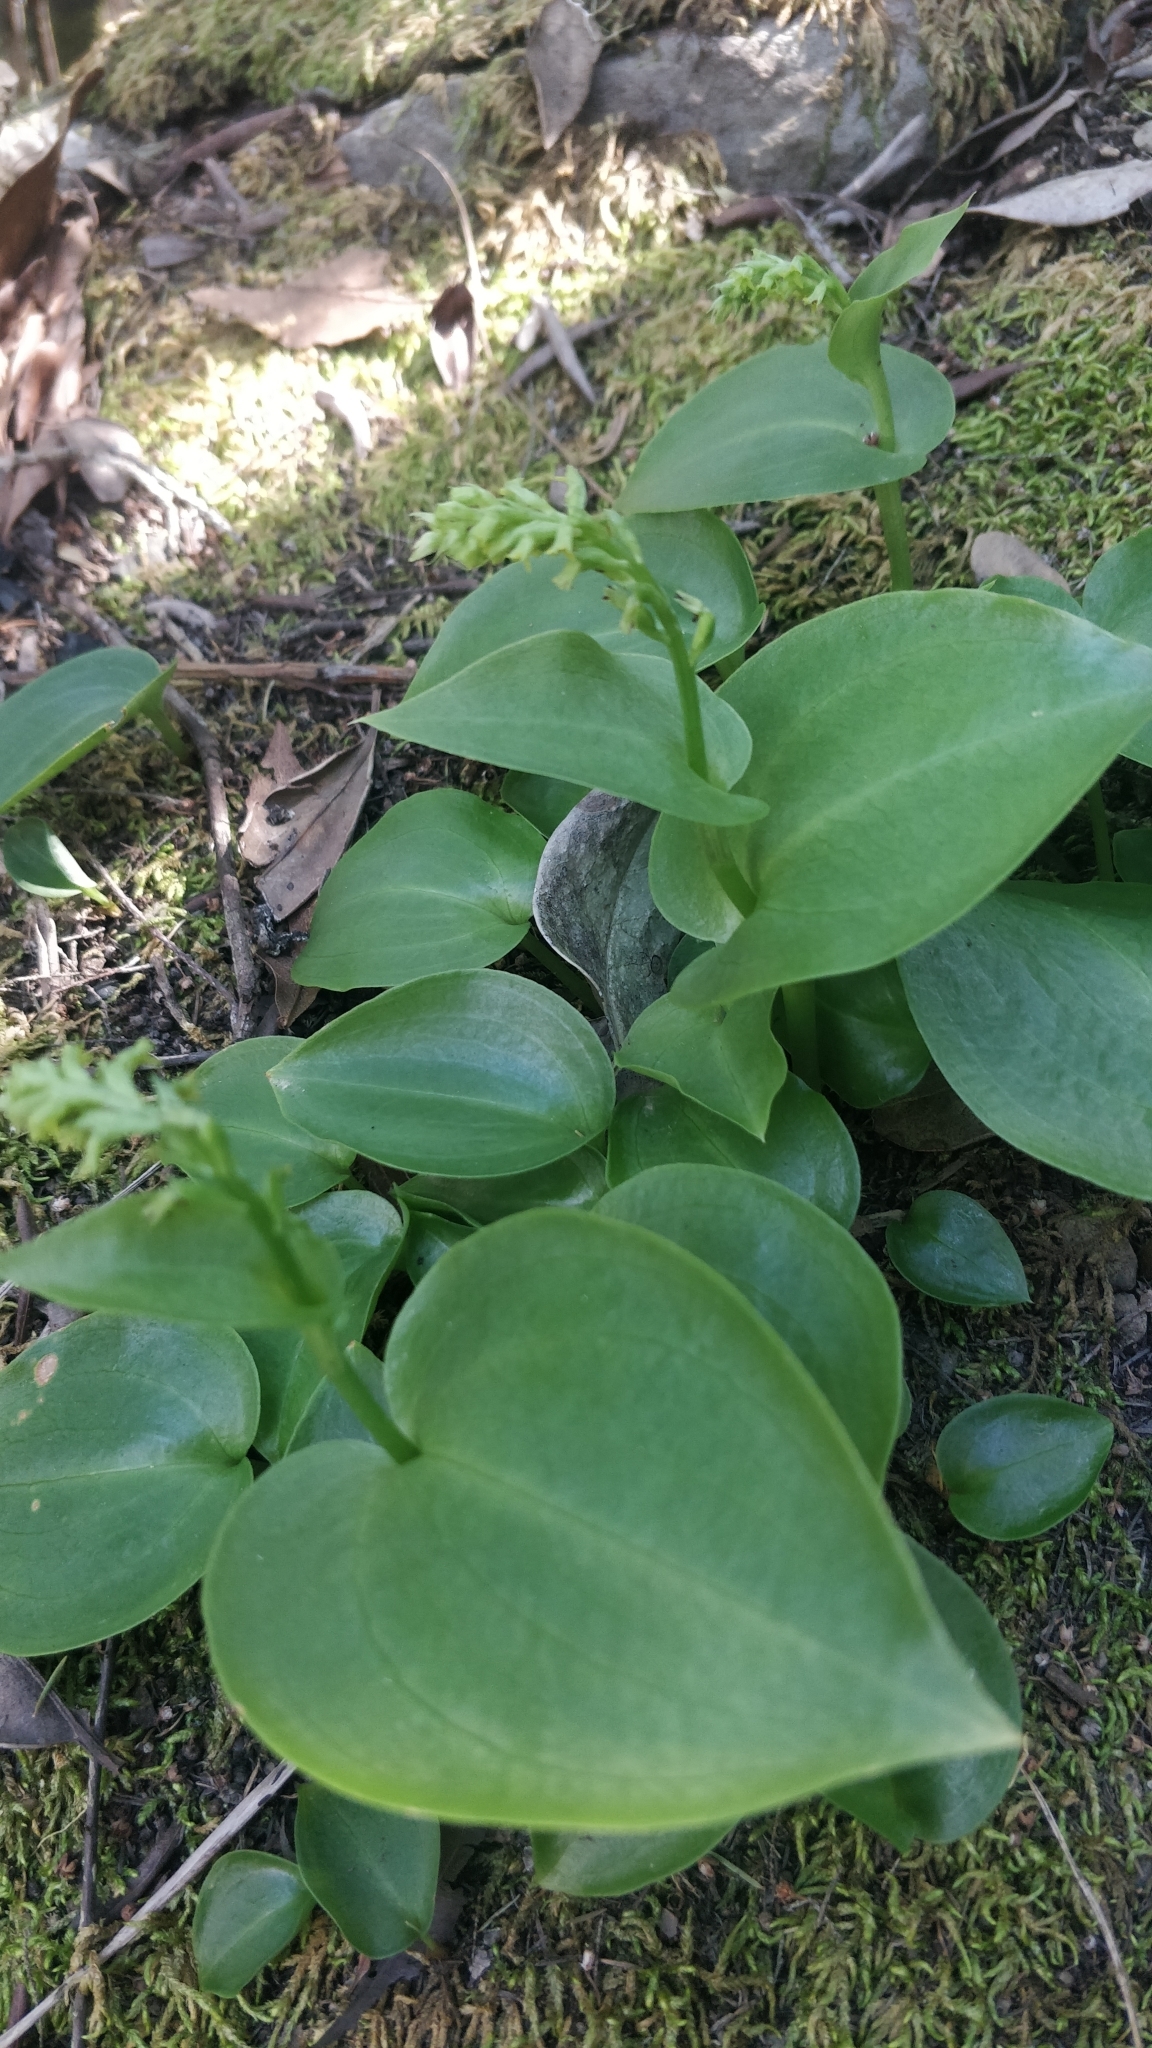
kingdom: Plantae
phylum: Tracheophyta
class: Liliopsida
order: Asparagales
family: Orchidaceae
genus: Gennaria
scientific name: Gennaria diphylla
